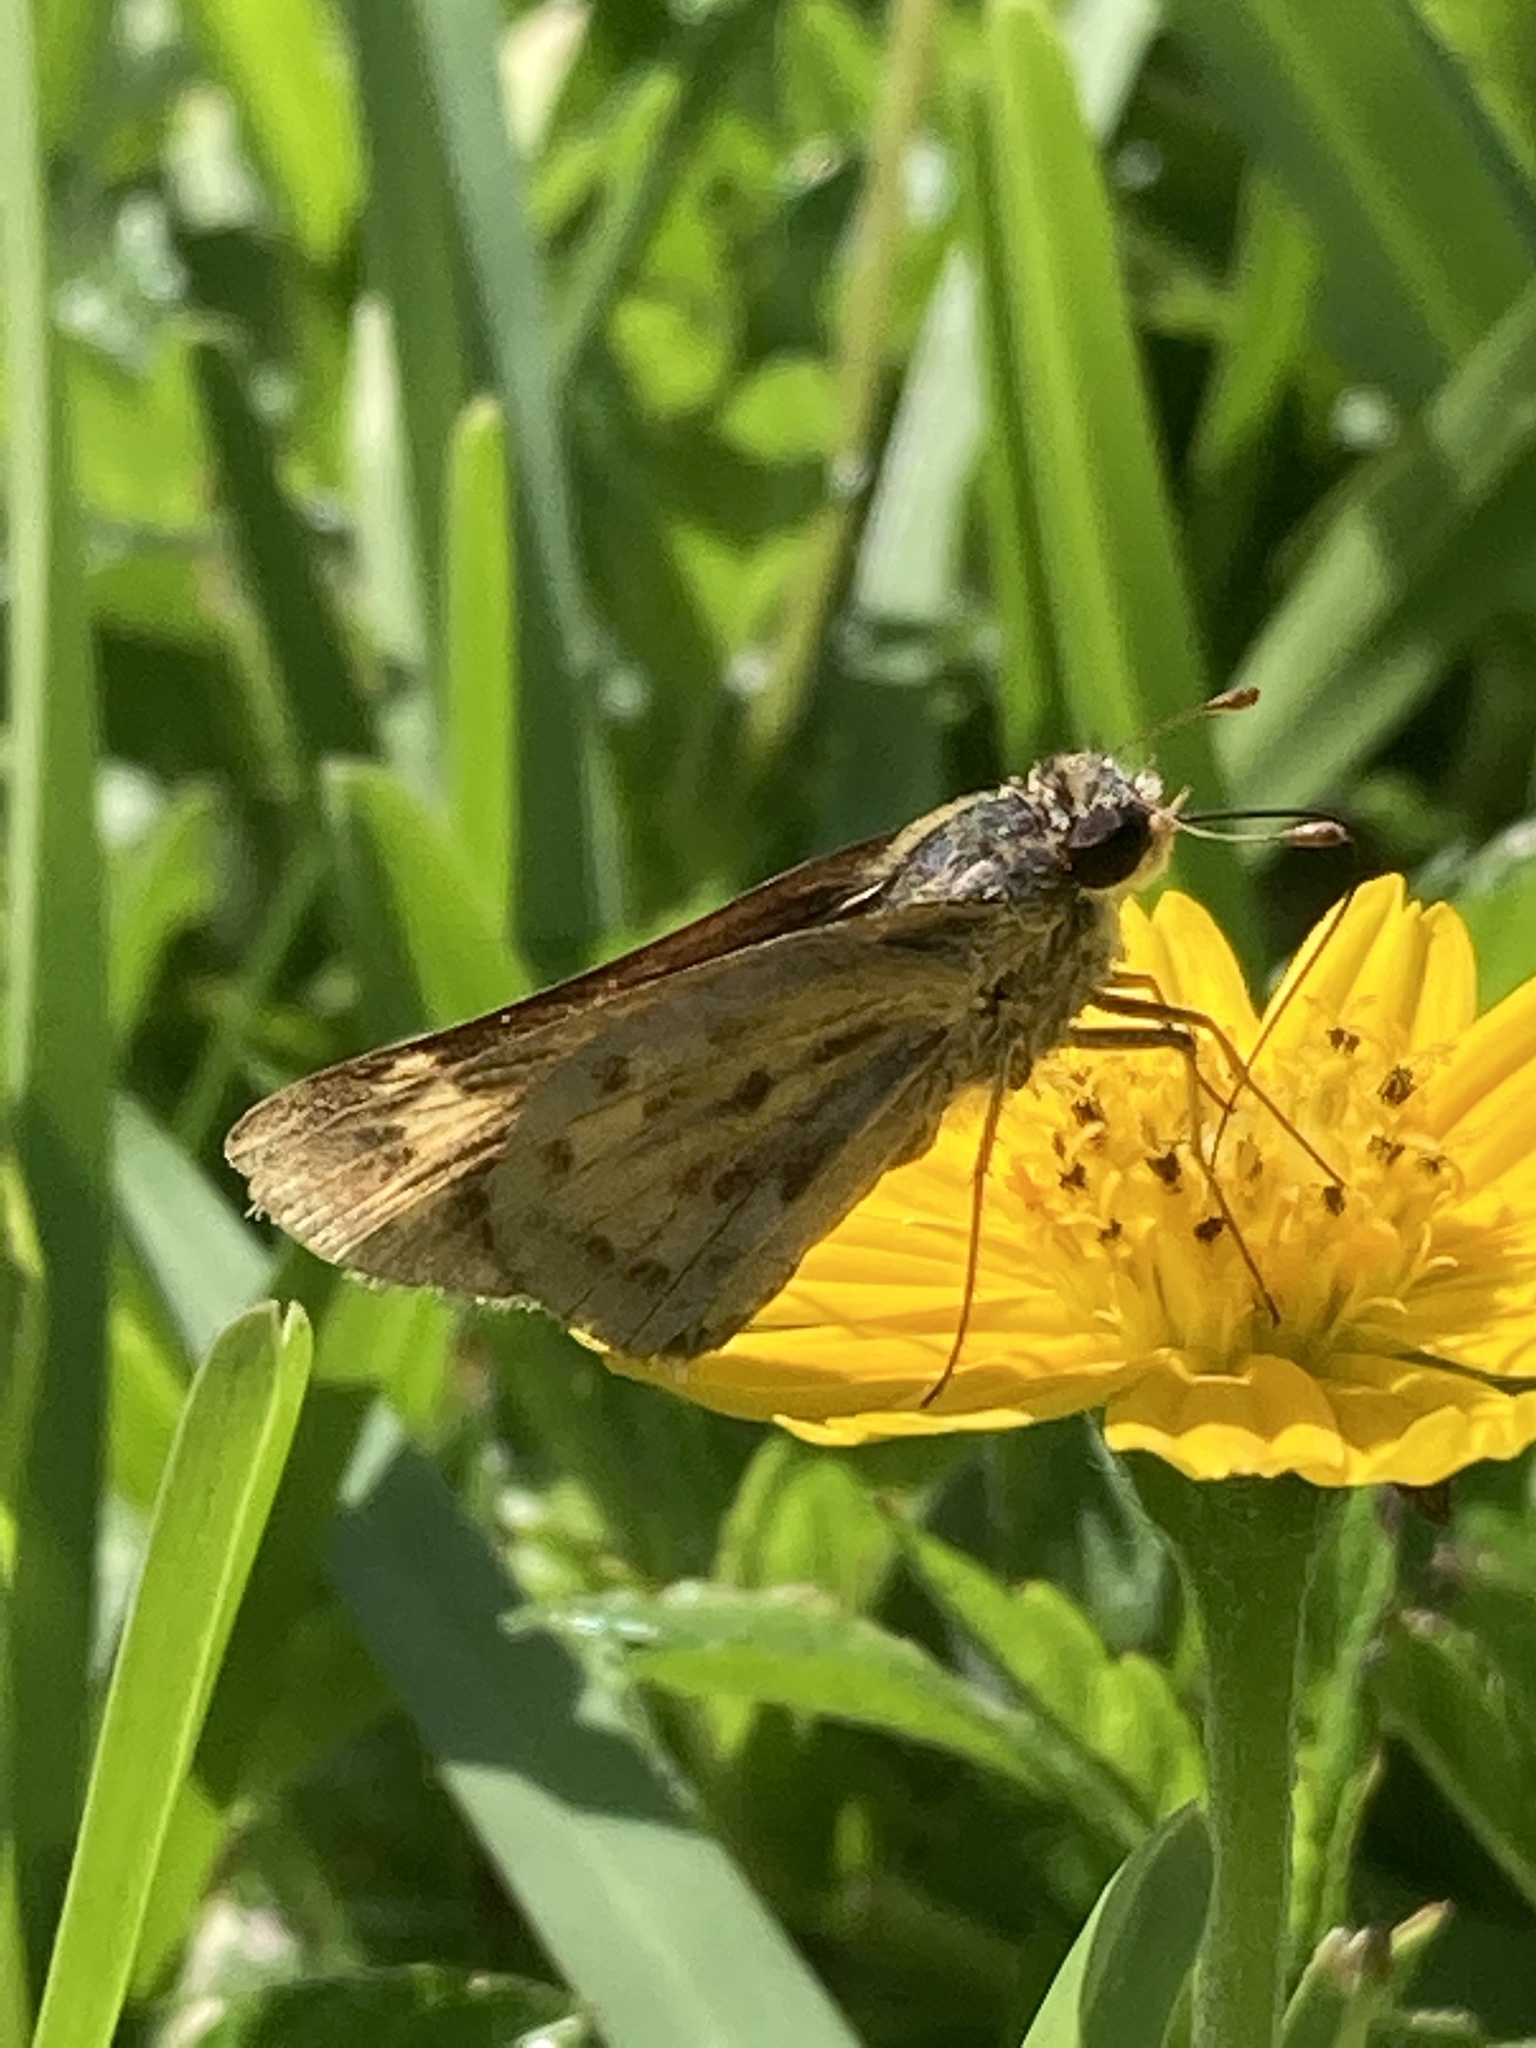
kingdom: Animalia
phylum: Arthropoda
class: Insecta
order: Lepidoptera
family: Hesperiidae
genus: Hylephila
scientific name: Hylephila phyleus
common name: Fiery skipper
